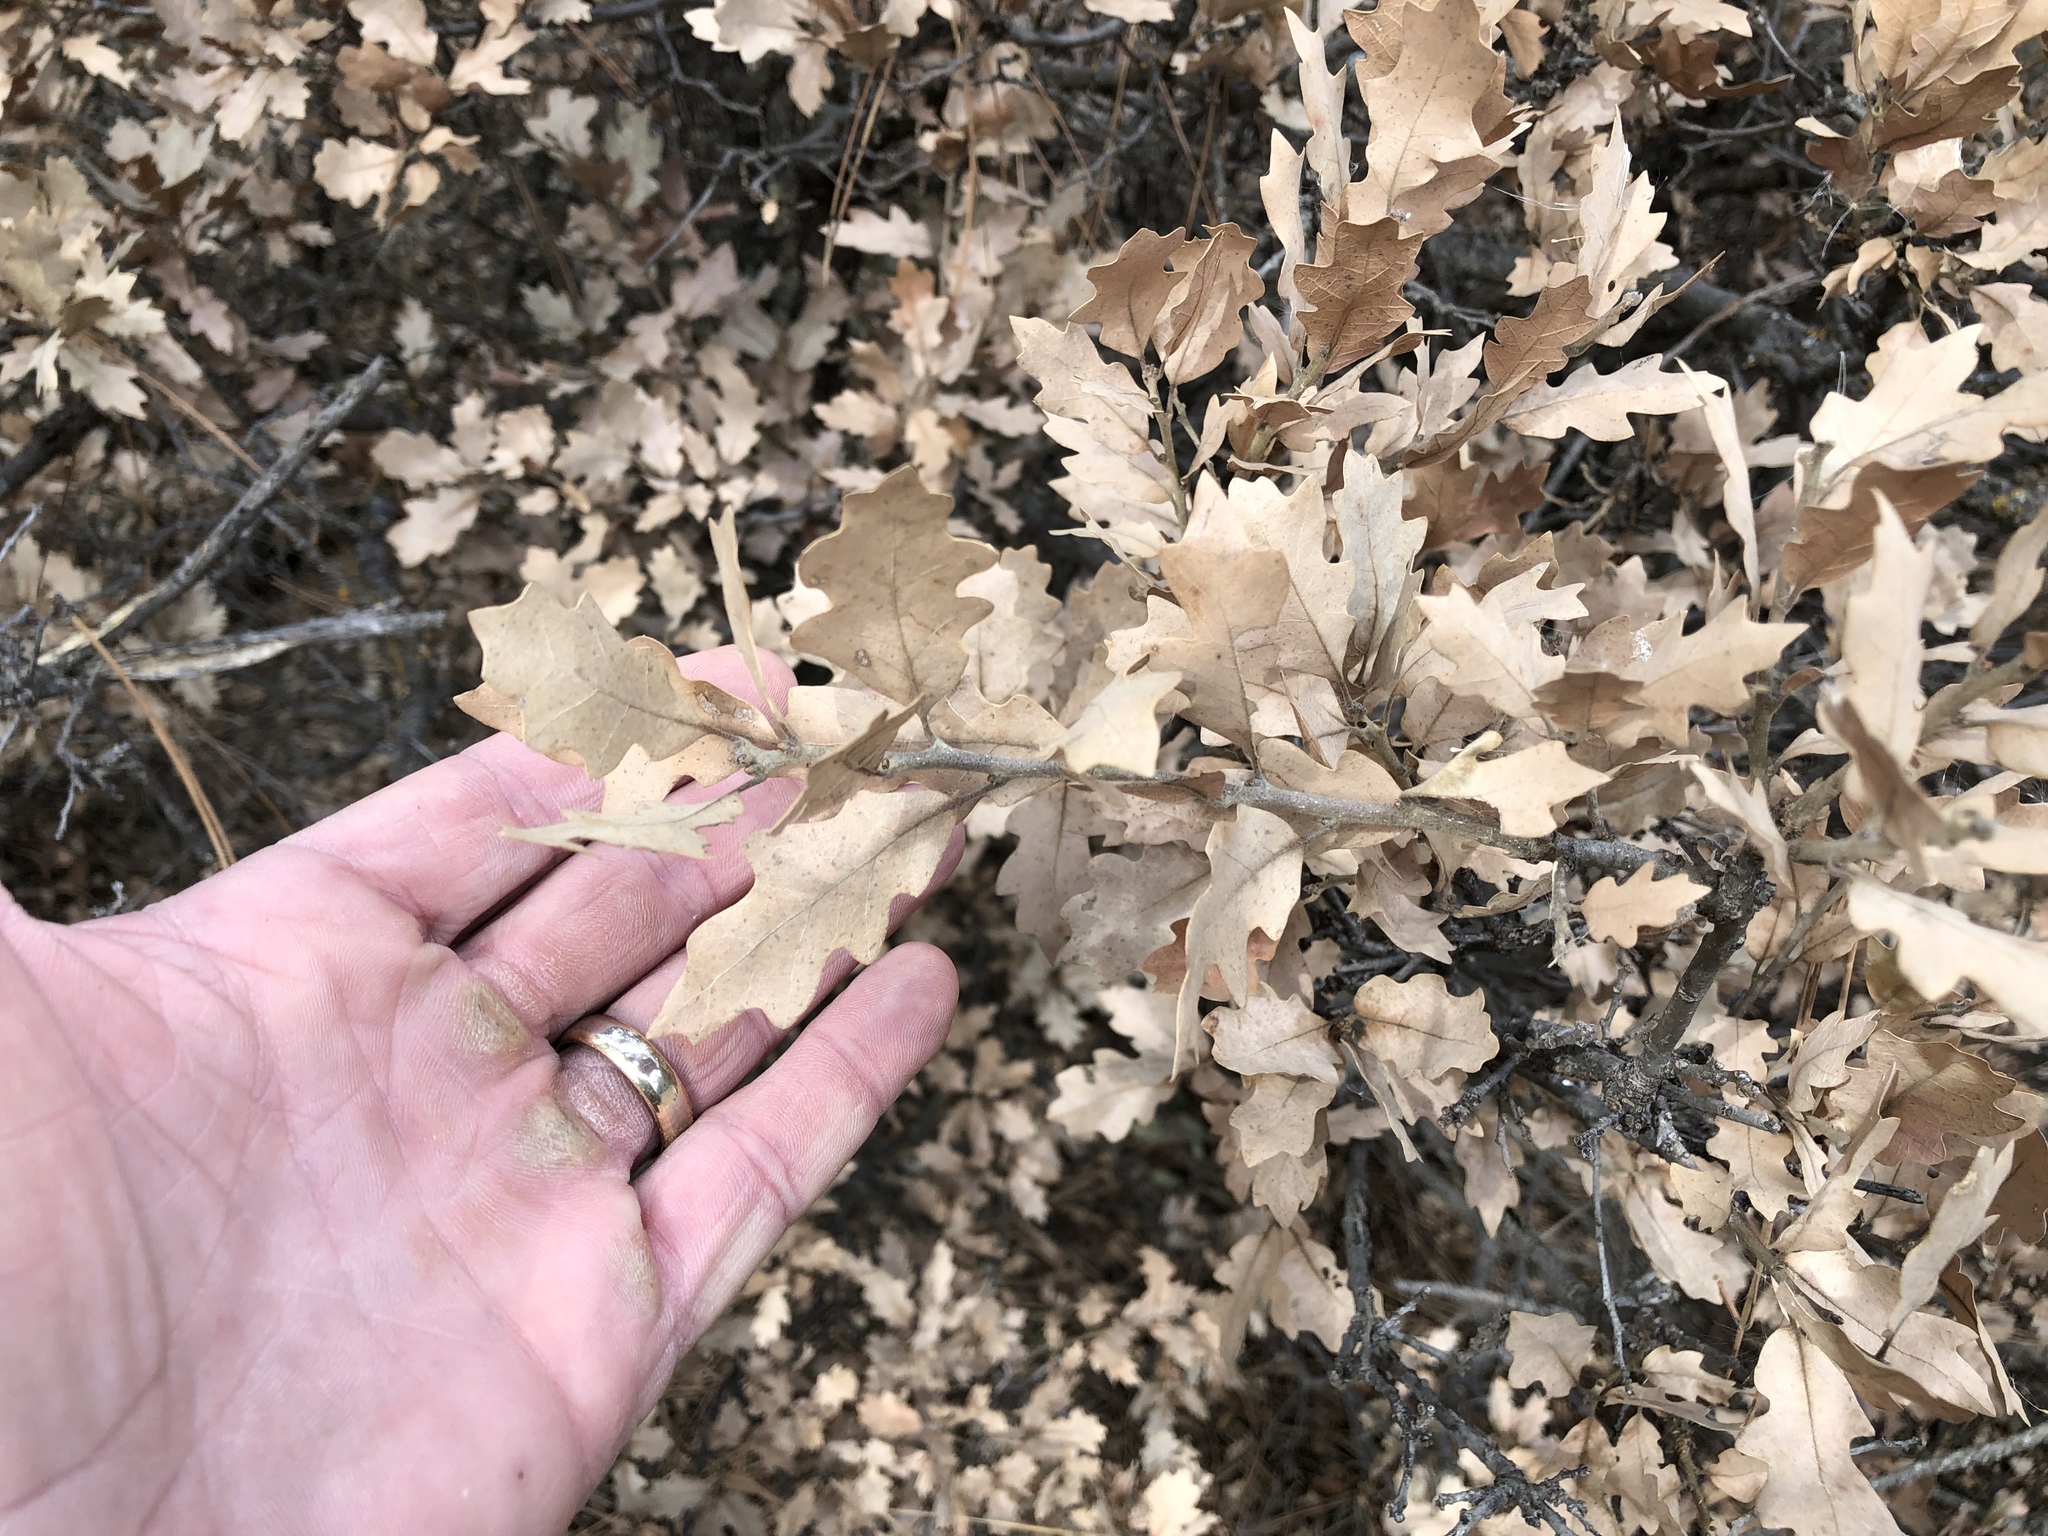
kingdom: Plantae
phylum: Tracheophyta
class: Magnoliopsida
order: Fagales
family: Fagaceae
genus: Quercus
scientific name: Quercus undulata
